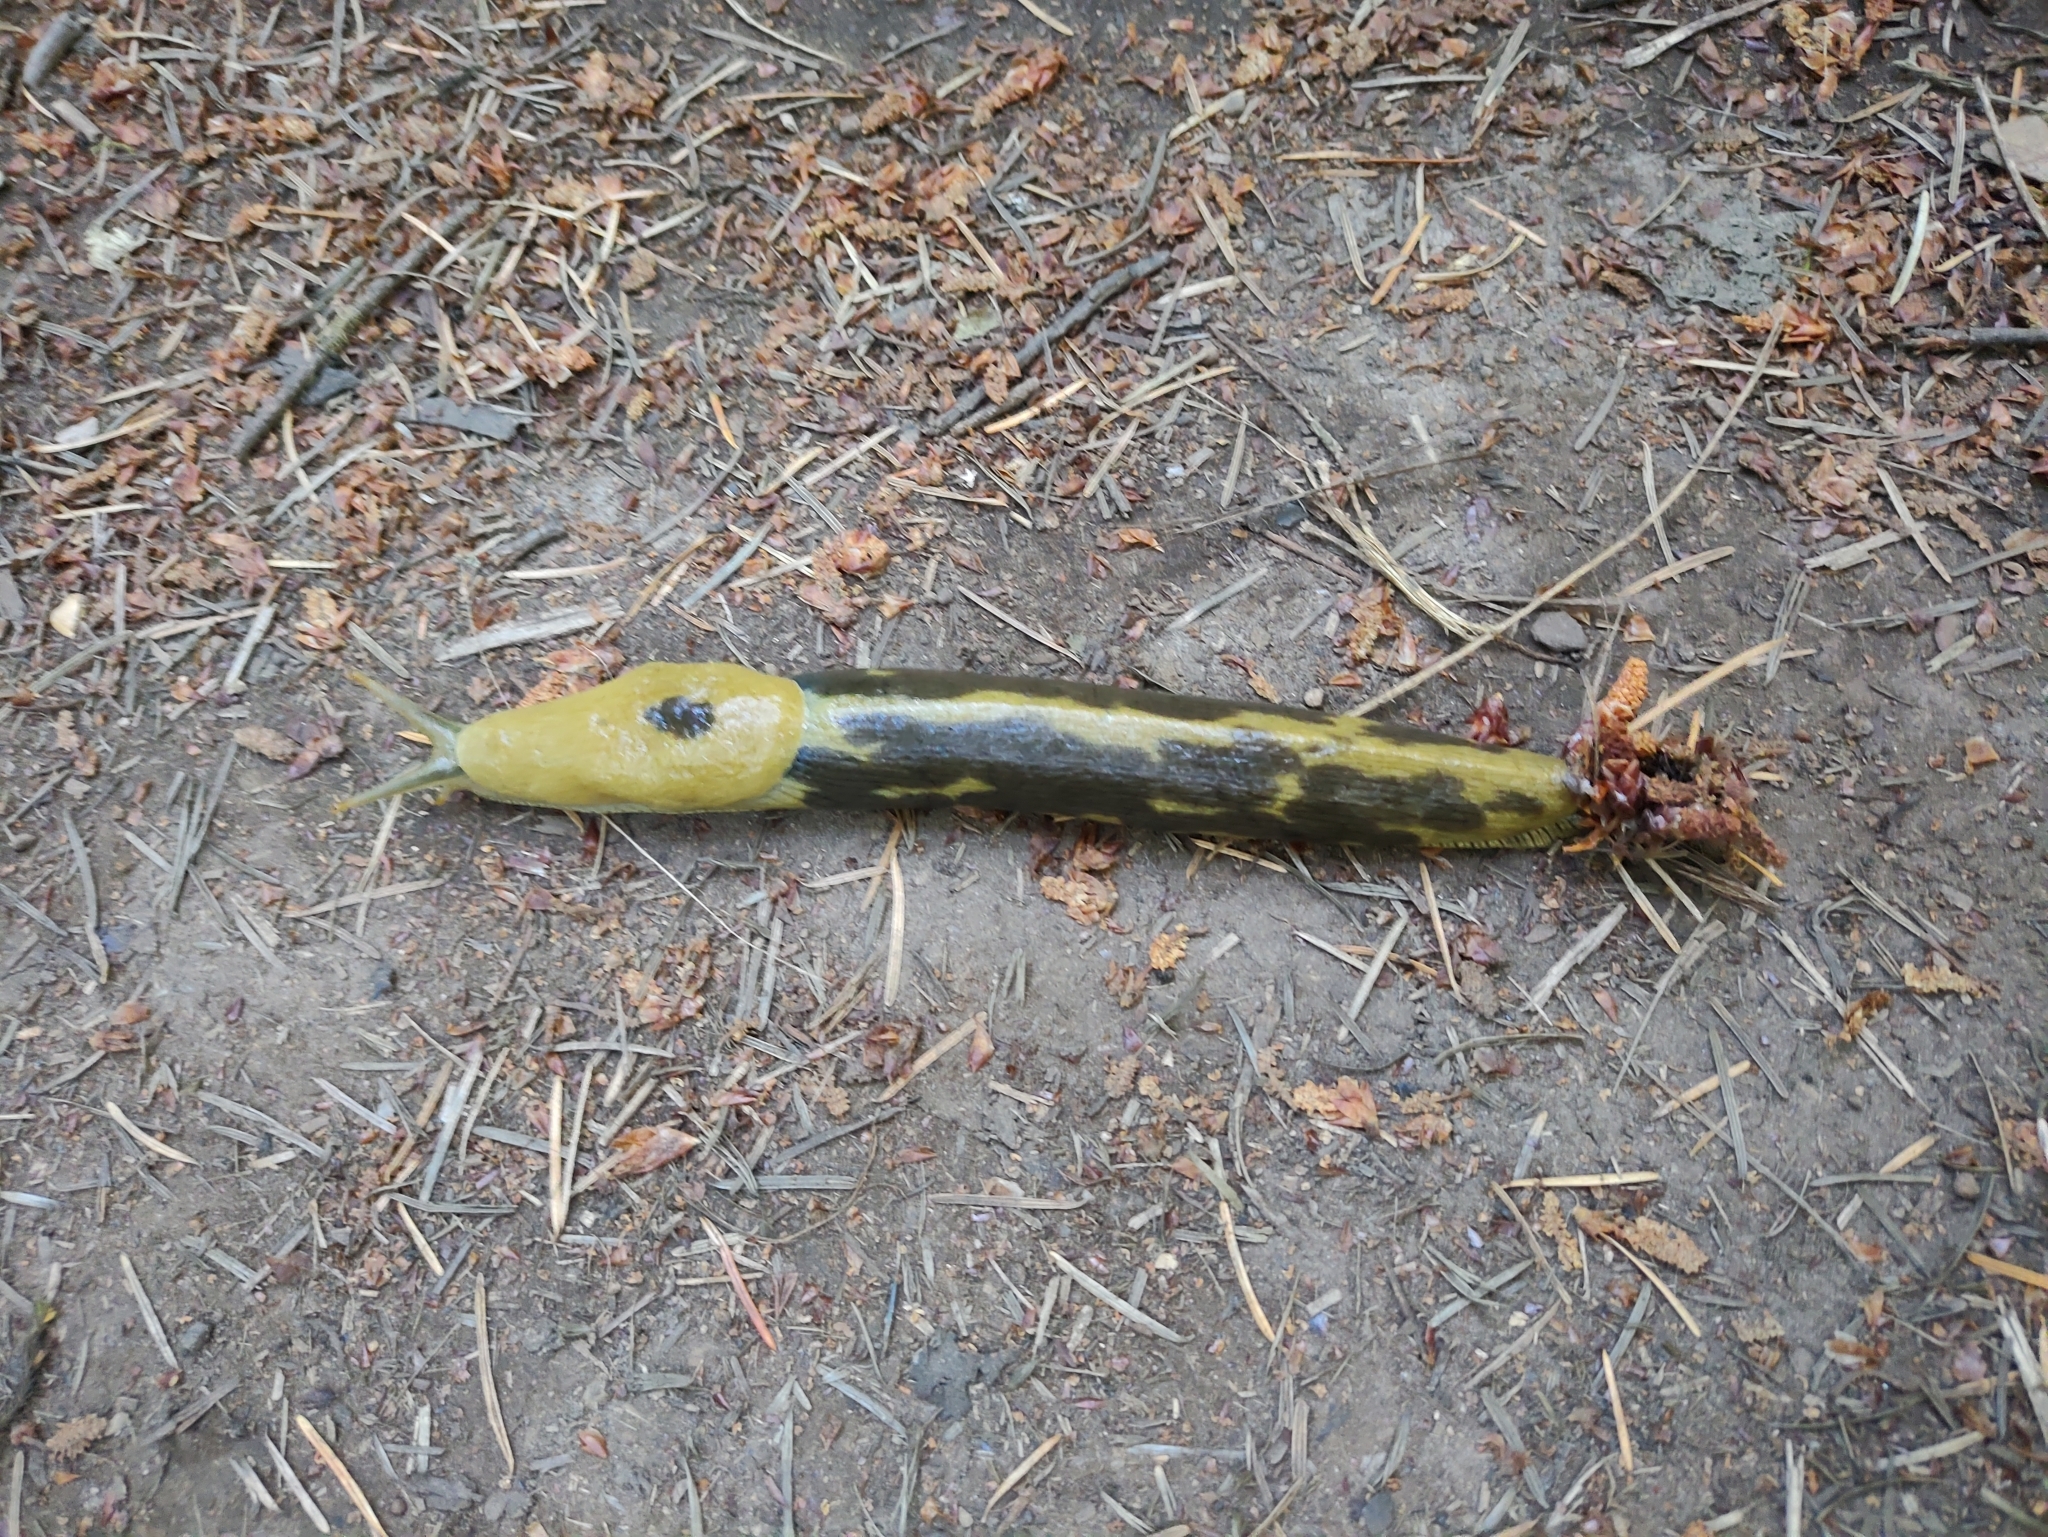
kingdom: Animalia
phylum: Mollusca
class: Gastropoda
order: Stylommatophora
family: Ariolimacidae
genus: Ariolimax
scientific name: Ariolimax columbianus
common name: Pacific banana slug
